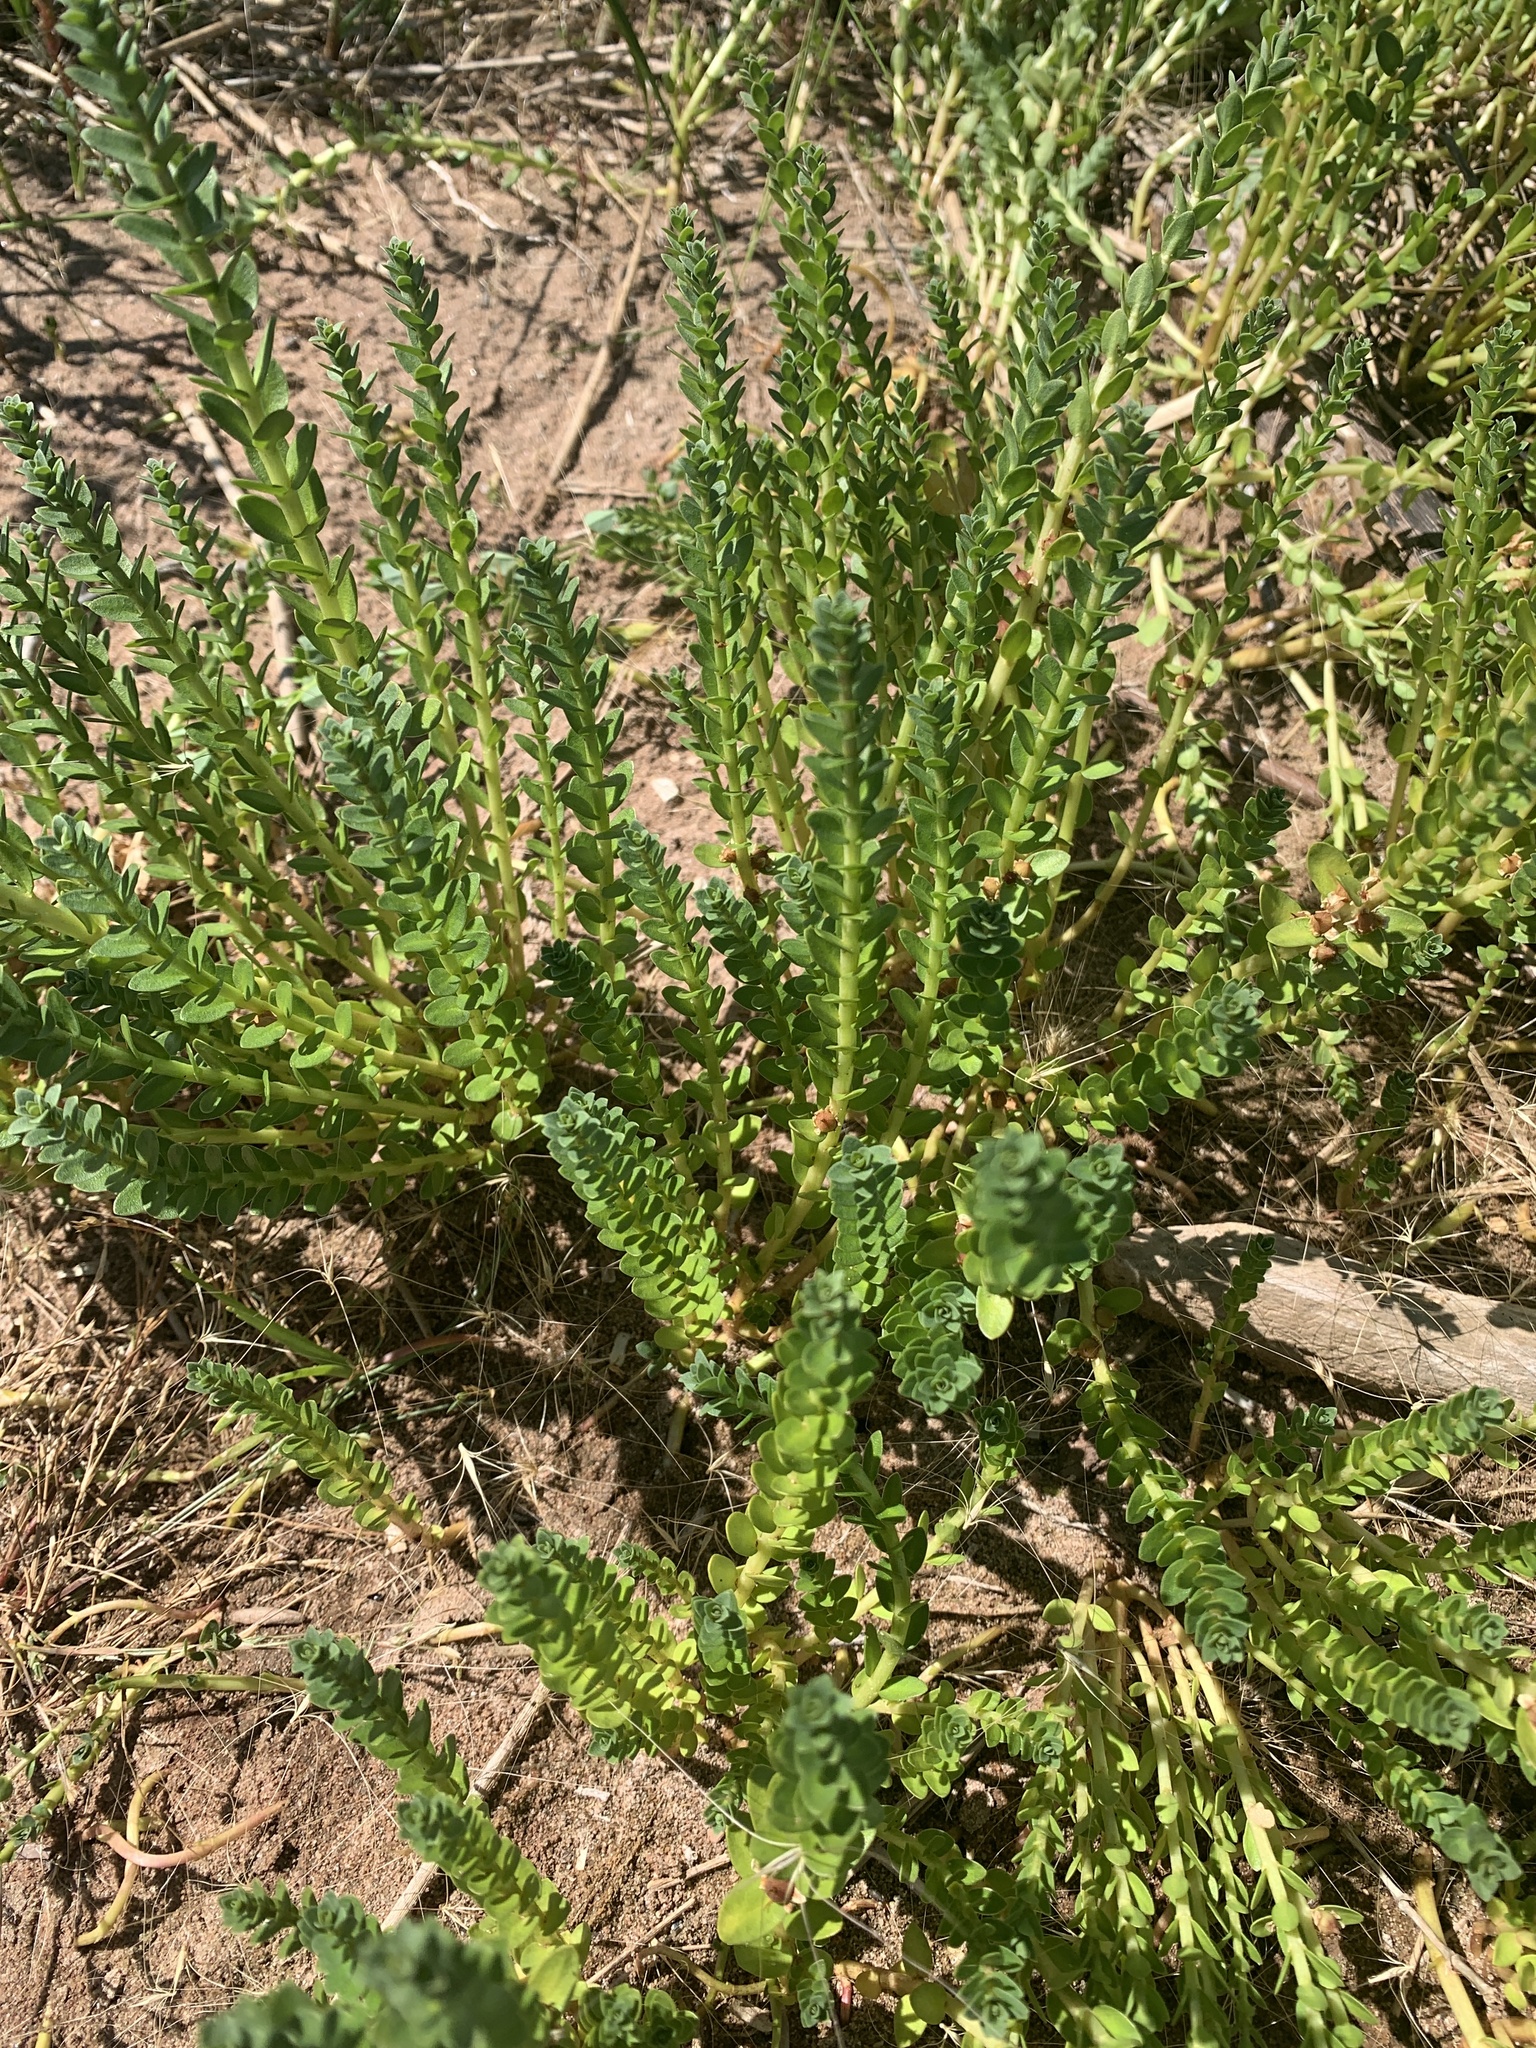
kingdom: Plantae
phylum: Tracheophyta
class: Magnoliopsida
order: Ericales
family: Primulaceae
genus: Lysimachia
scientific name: Lysimachia maritima
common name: Sea milkwort
